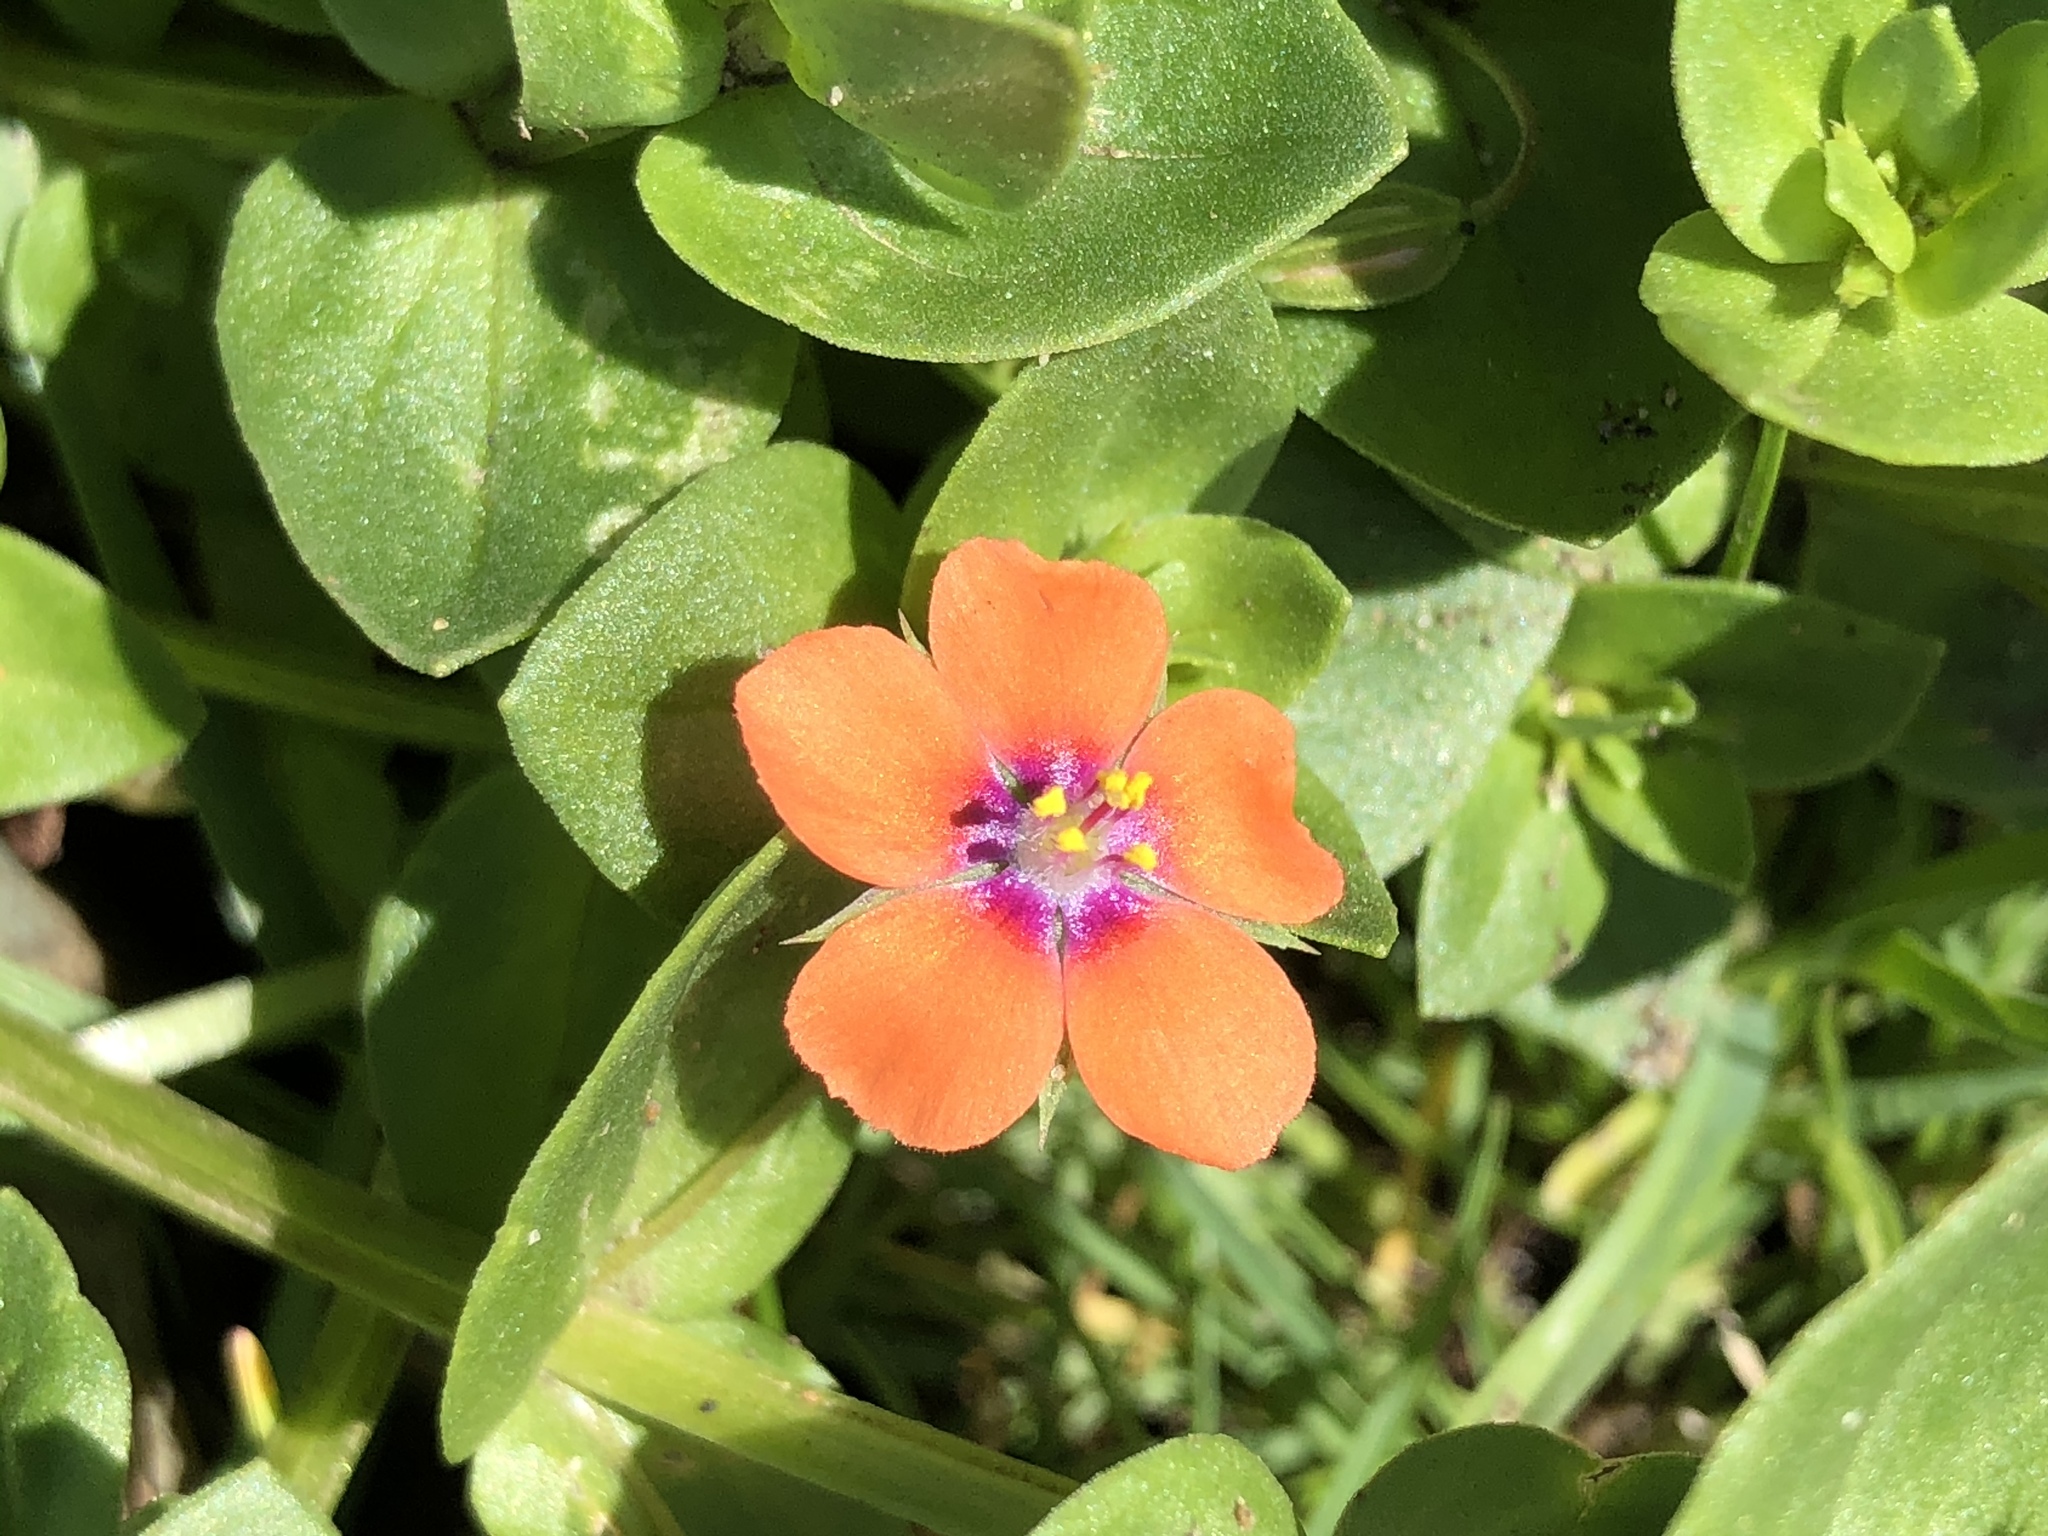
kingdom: Plantae
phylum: Tracheophyta
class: Magnoliopsida
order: Ericales
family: Primulaceae
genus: Lysimachia
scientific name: Lysimachia arvensis
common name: Scarlet pimpernel
